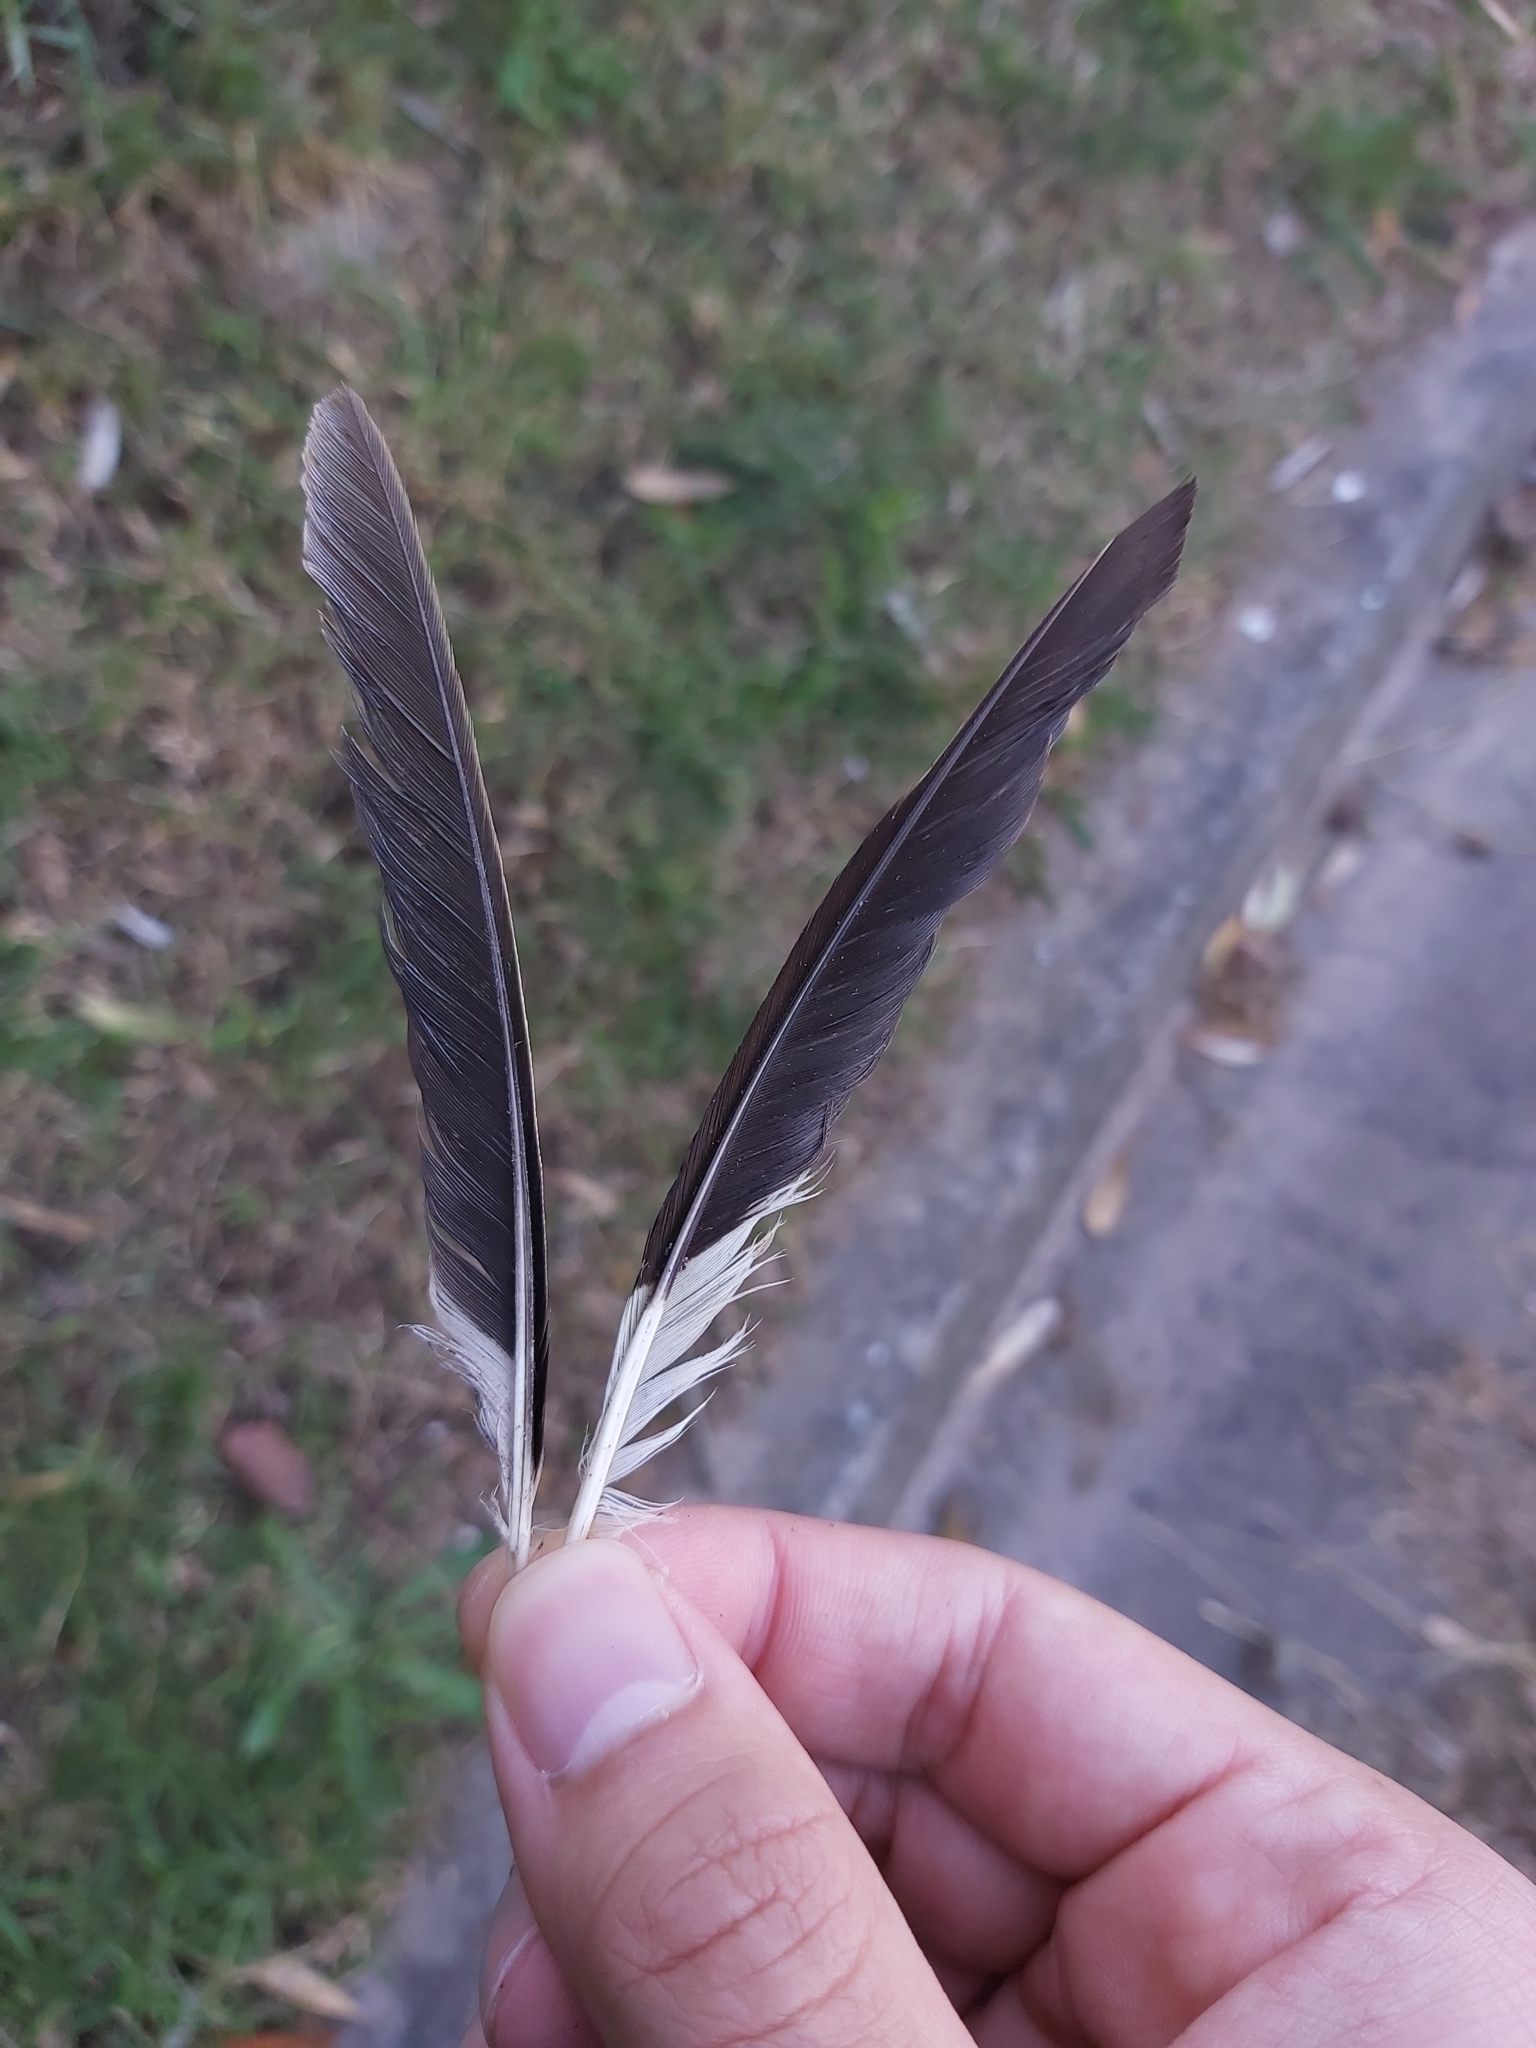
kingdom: Animalia
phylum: Chordata
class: Aves
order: Passeriformes
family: Sturnidae
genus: Acridotheres
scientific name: Acridotheres tristis
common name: Common myna
